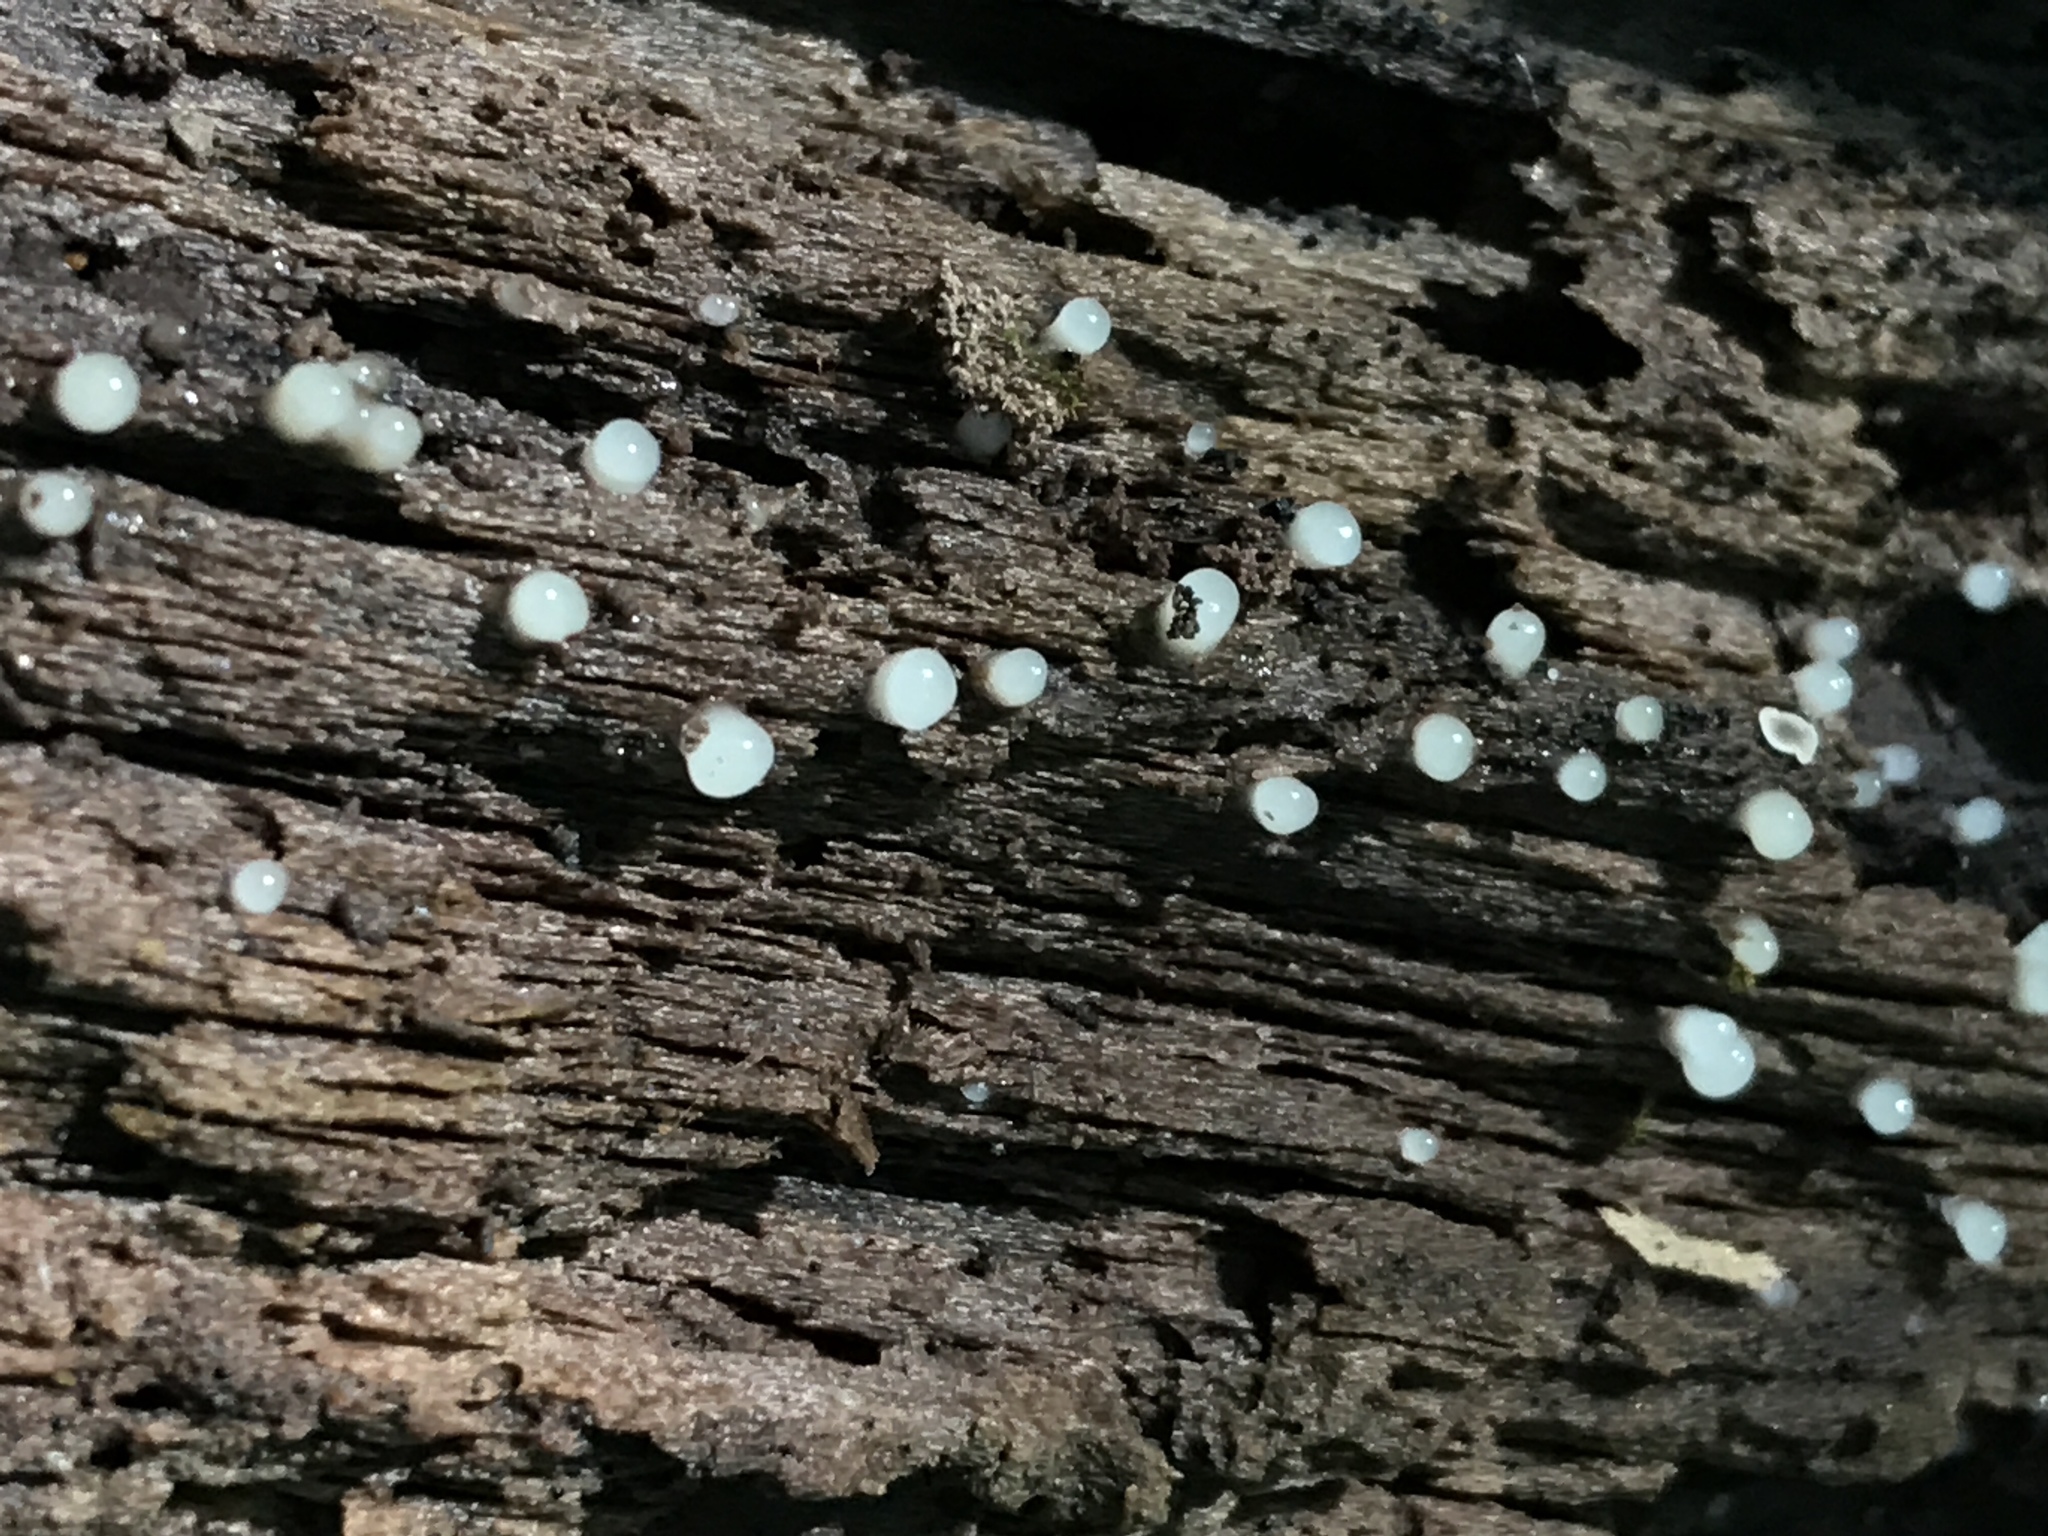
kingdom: Fungi
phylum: Basidiomycota
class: Atractiellomycetes
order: Atractiellales
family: Phleogenaceae
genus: Helicogloea
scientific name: Helicogloea compressa
